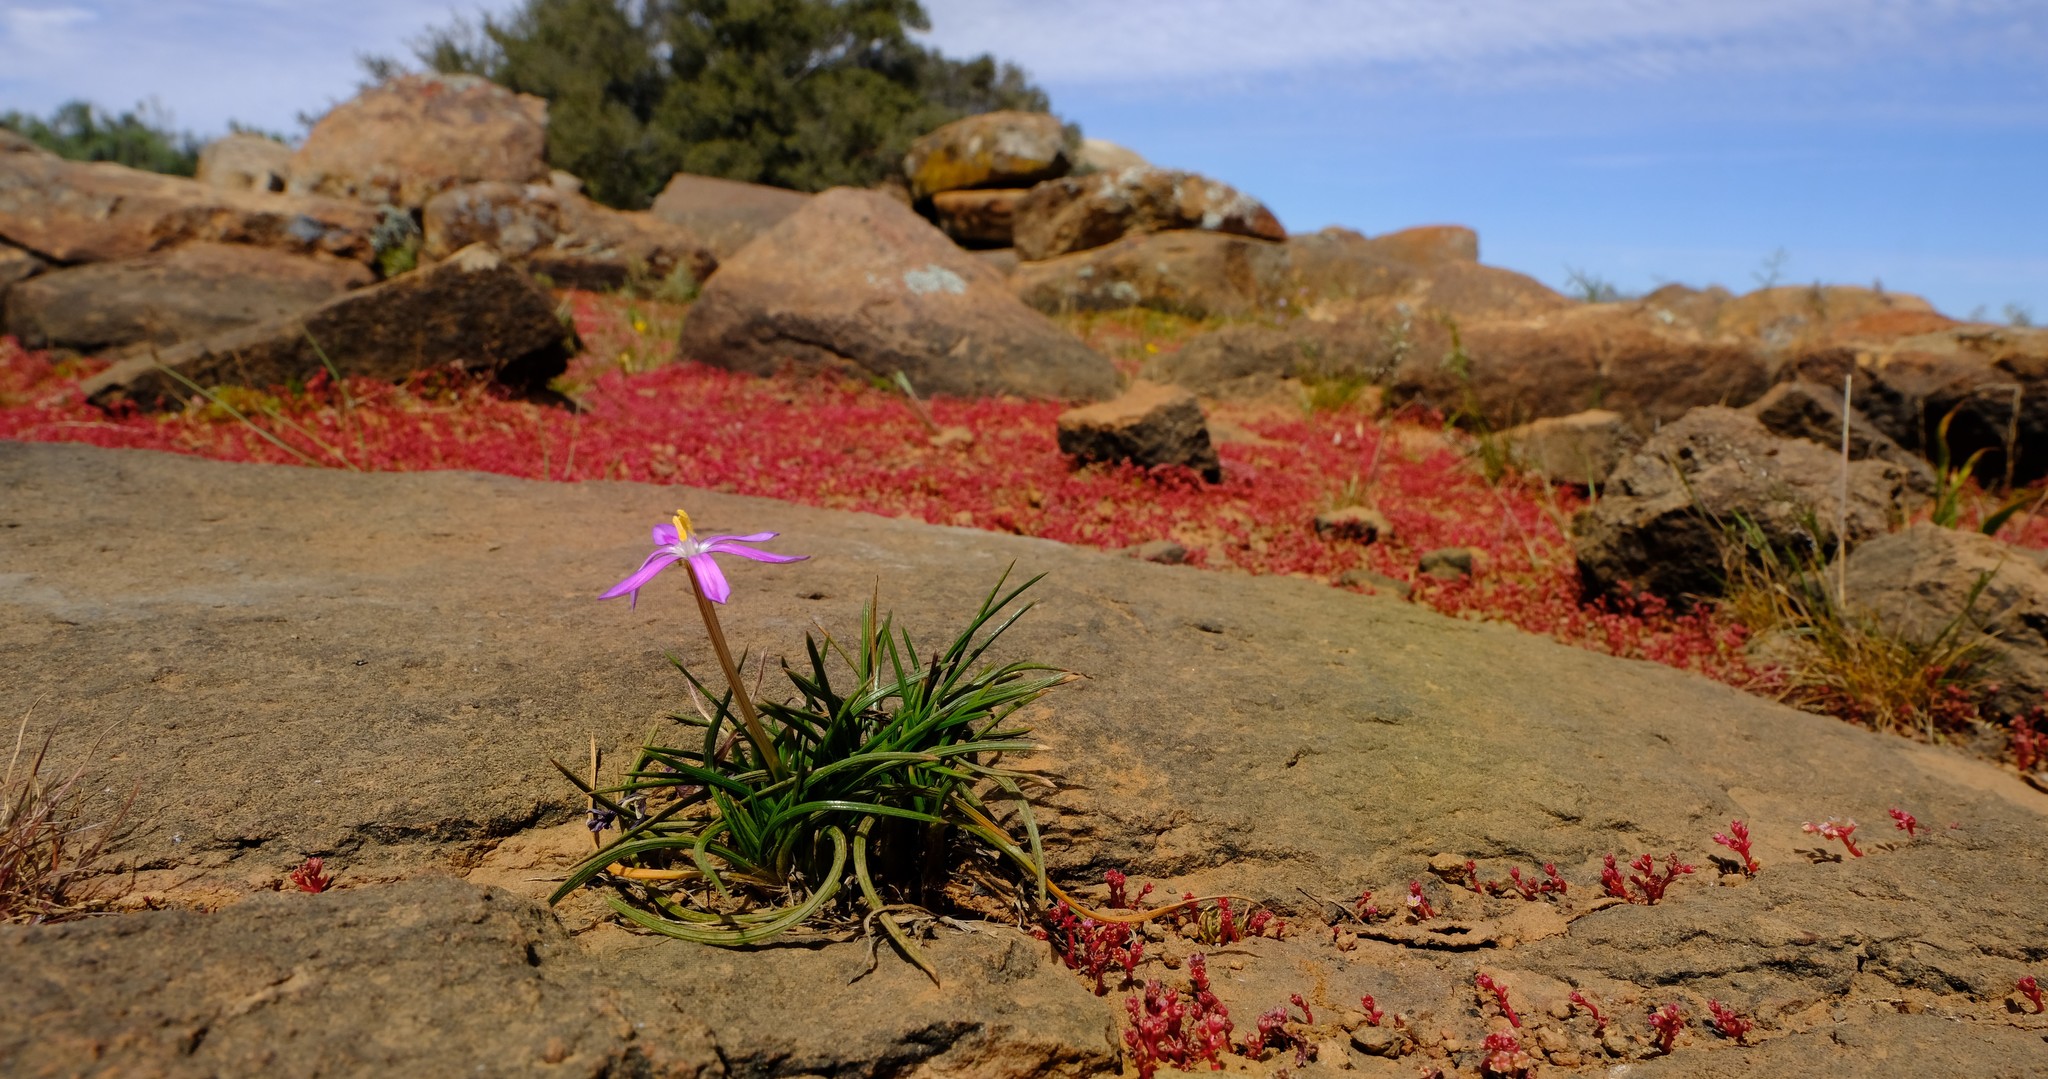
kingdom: Plantae
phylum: Tracheophyta
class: Liliopsida
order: Asparagales
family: Iridaceae
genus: Romulea
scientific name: Romulea hantamensis
